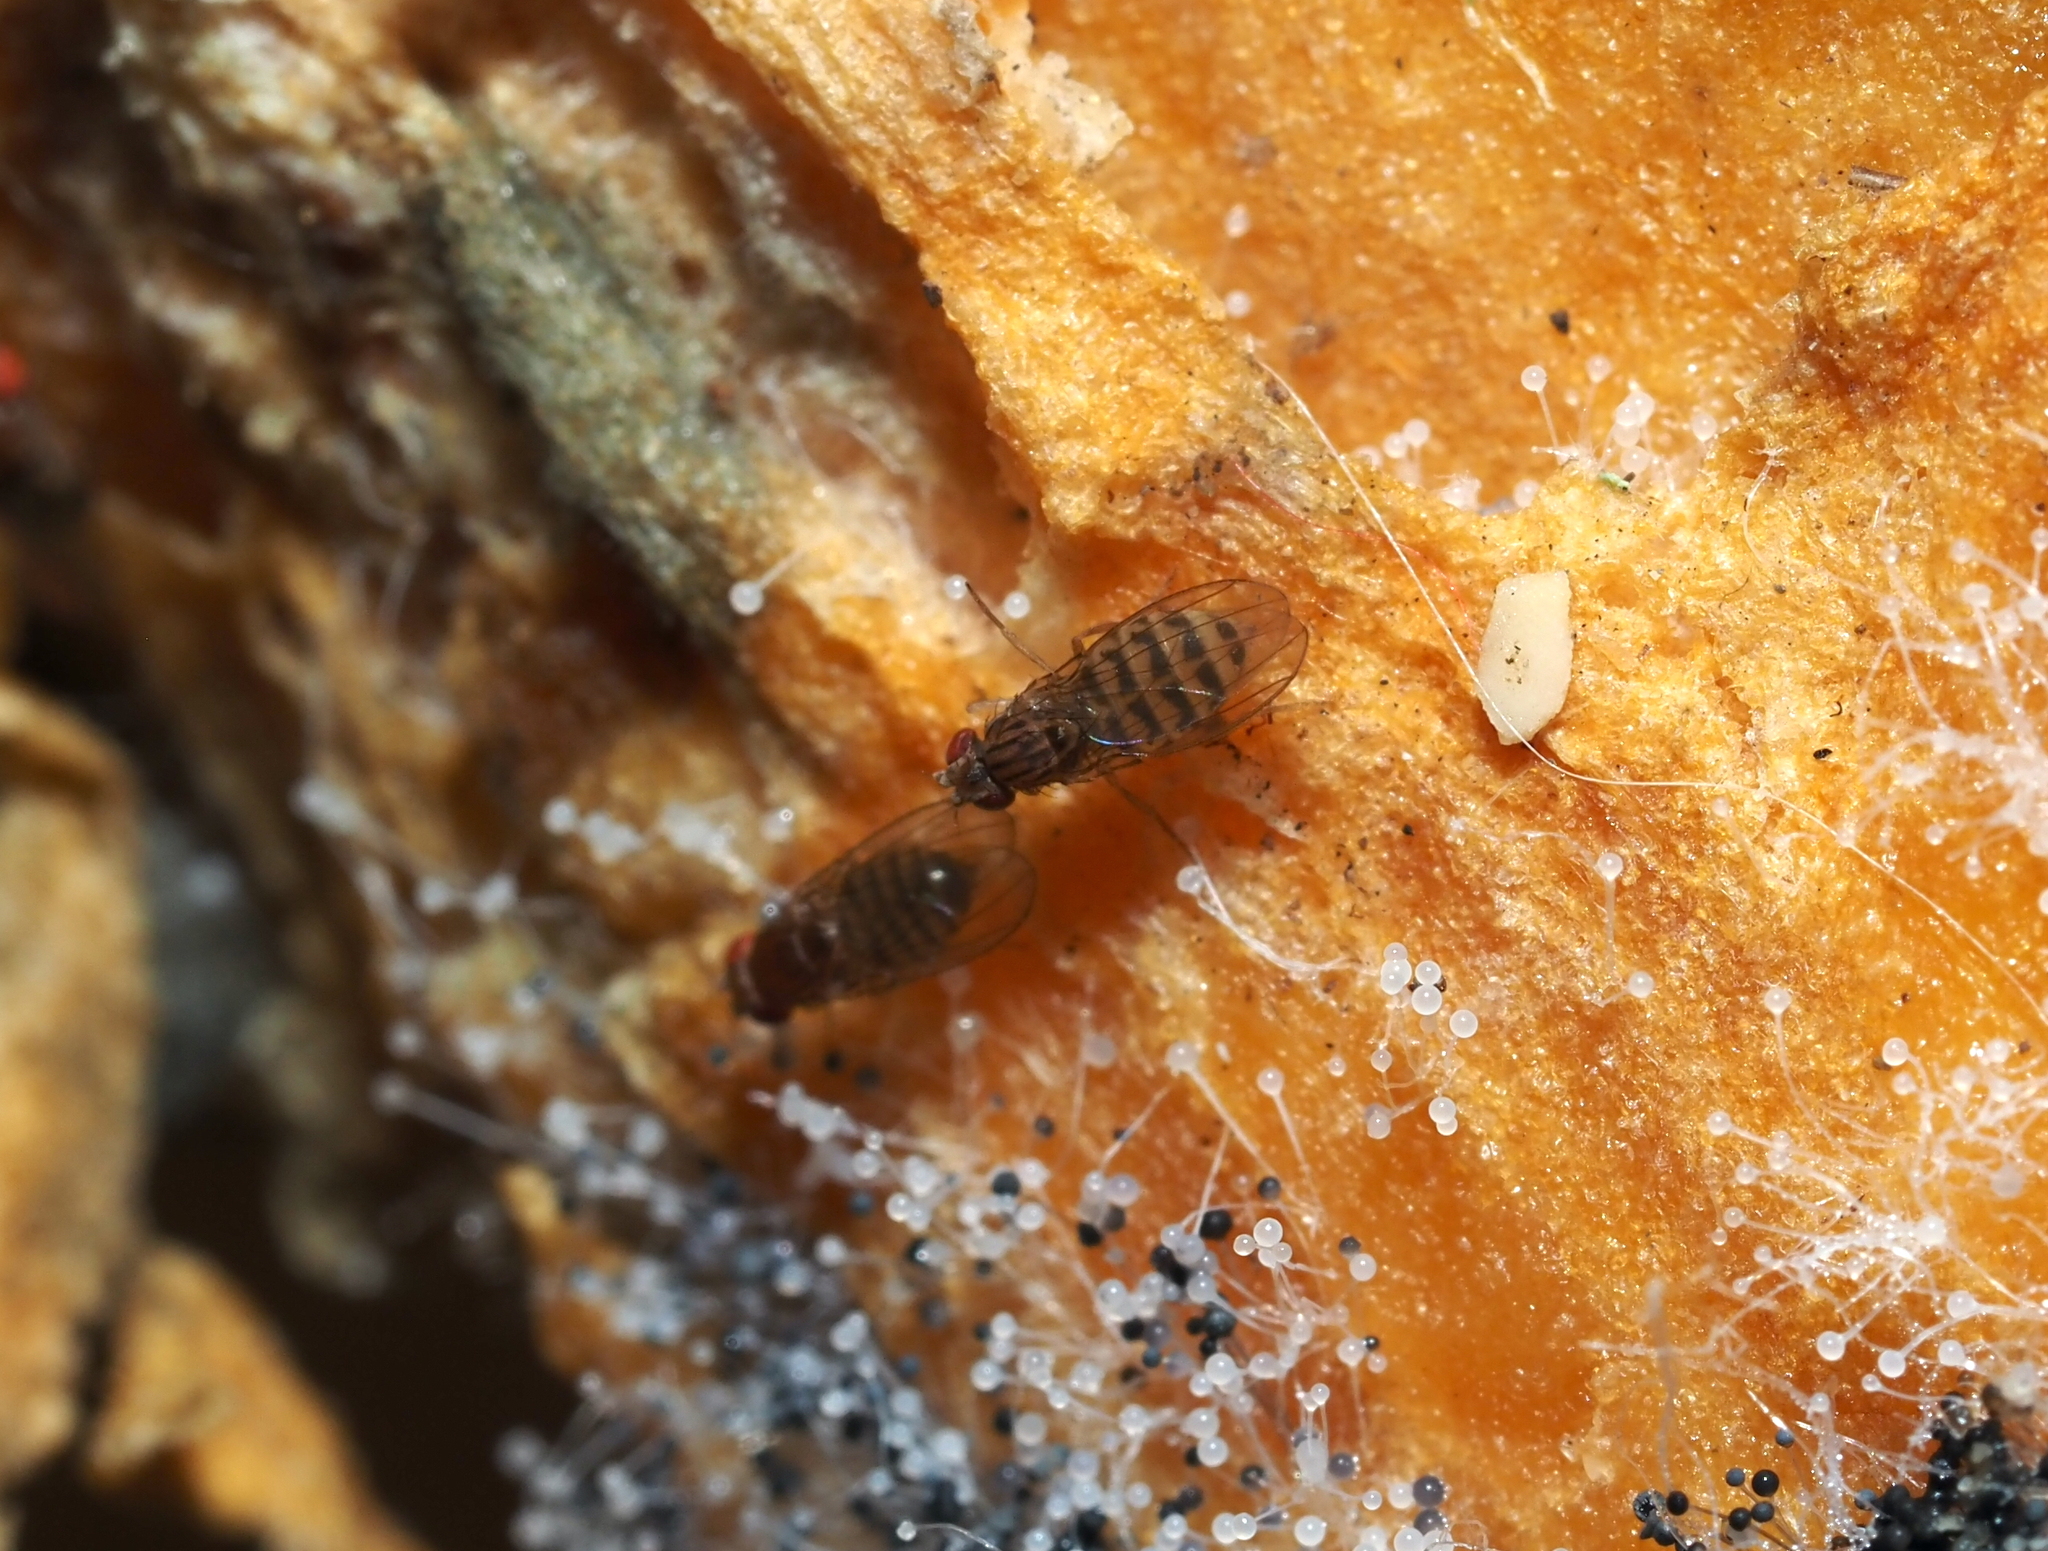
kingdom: Animalia
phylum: Arthropoda
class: Insecta
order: Diptera
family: Drosophilidae
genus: Drosophila
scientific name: Drosophila busckii
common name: Pomace fly
